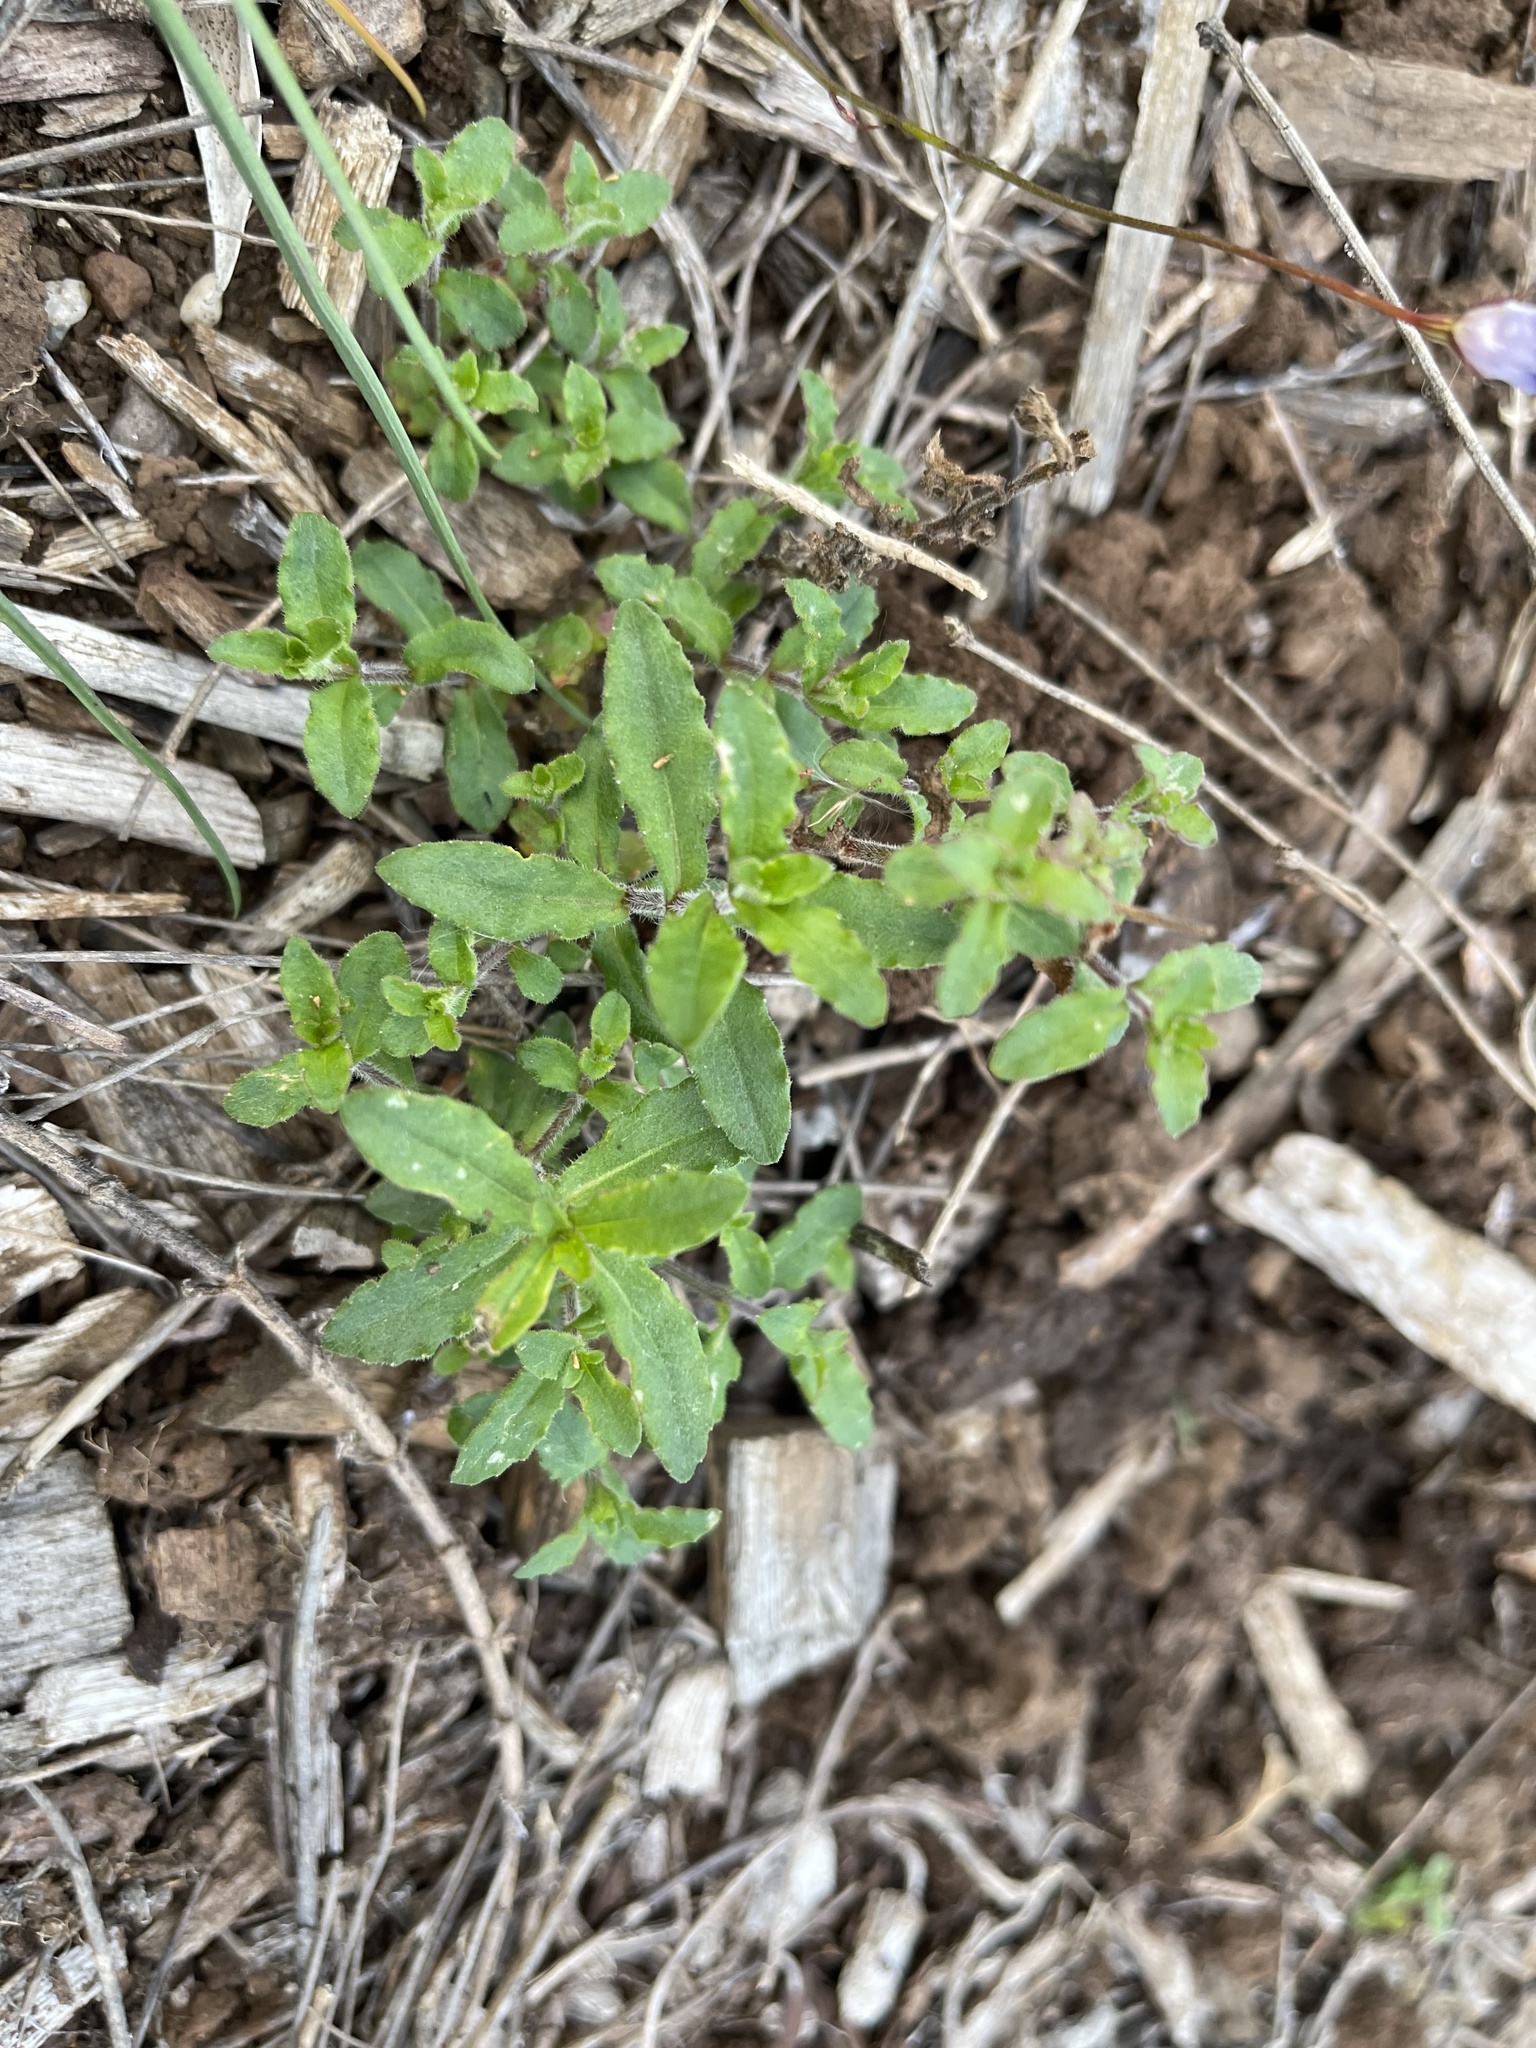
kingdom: Plantae
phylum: Tracheophyta
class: Magnoliopsida
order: Asterales
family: Campanulaceae
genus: Wahlenbergia
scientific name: Wahlenbergia stricta
